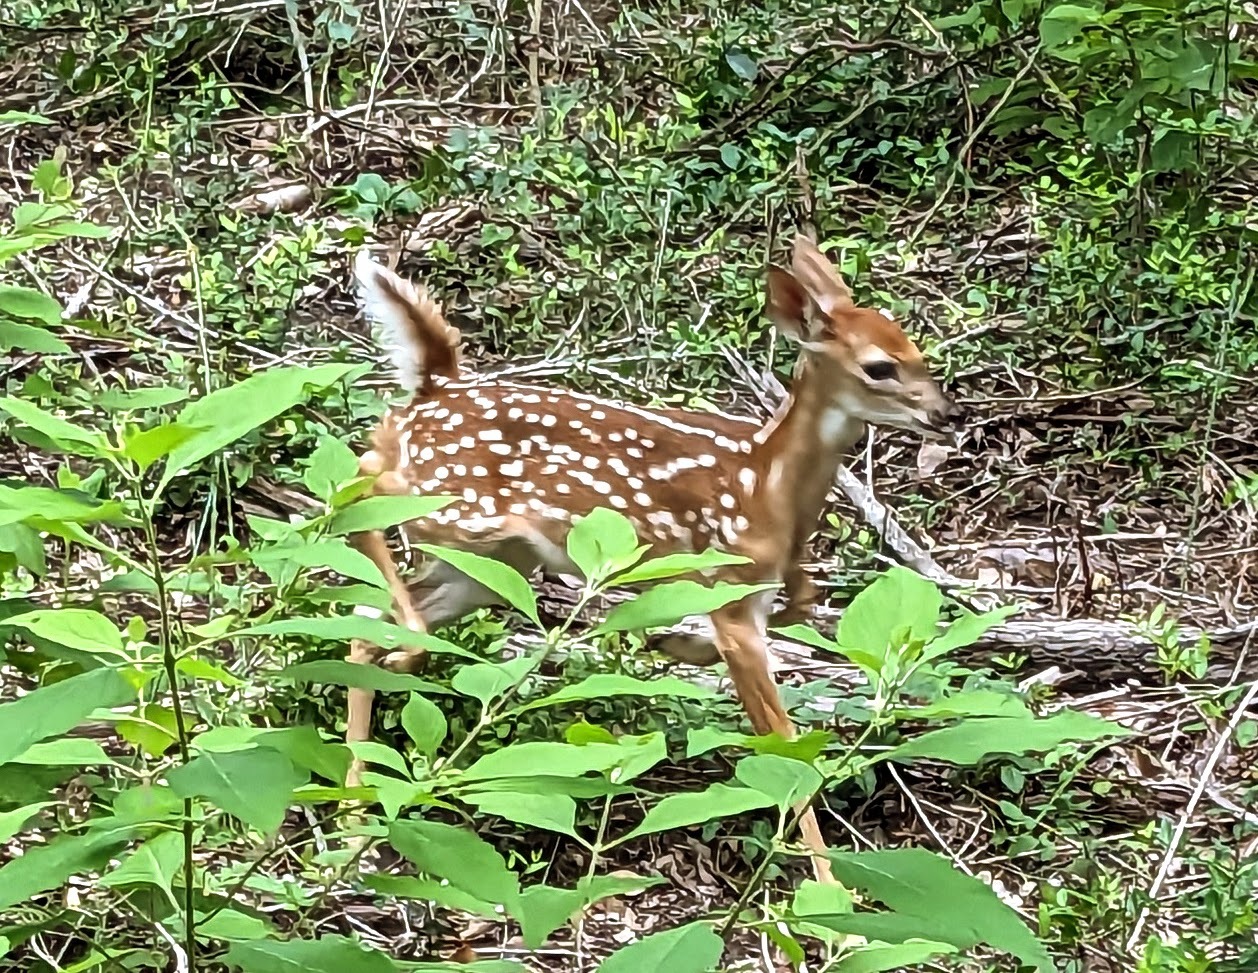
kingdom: Animalia
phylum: Chordata
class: Mammalia
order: Artiodactyla
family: Cervidae
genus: Odocoileus
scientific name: Odocoileus virginianus
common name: White-tailed deer
